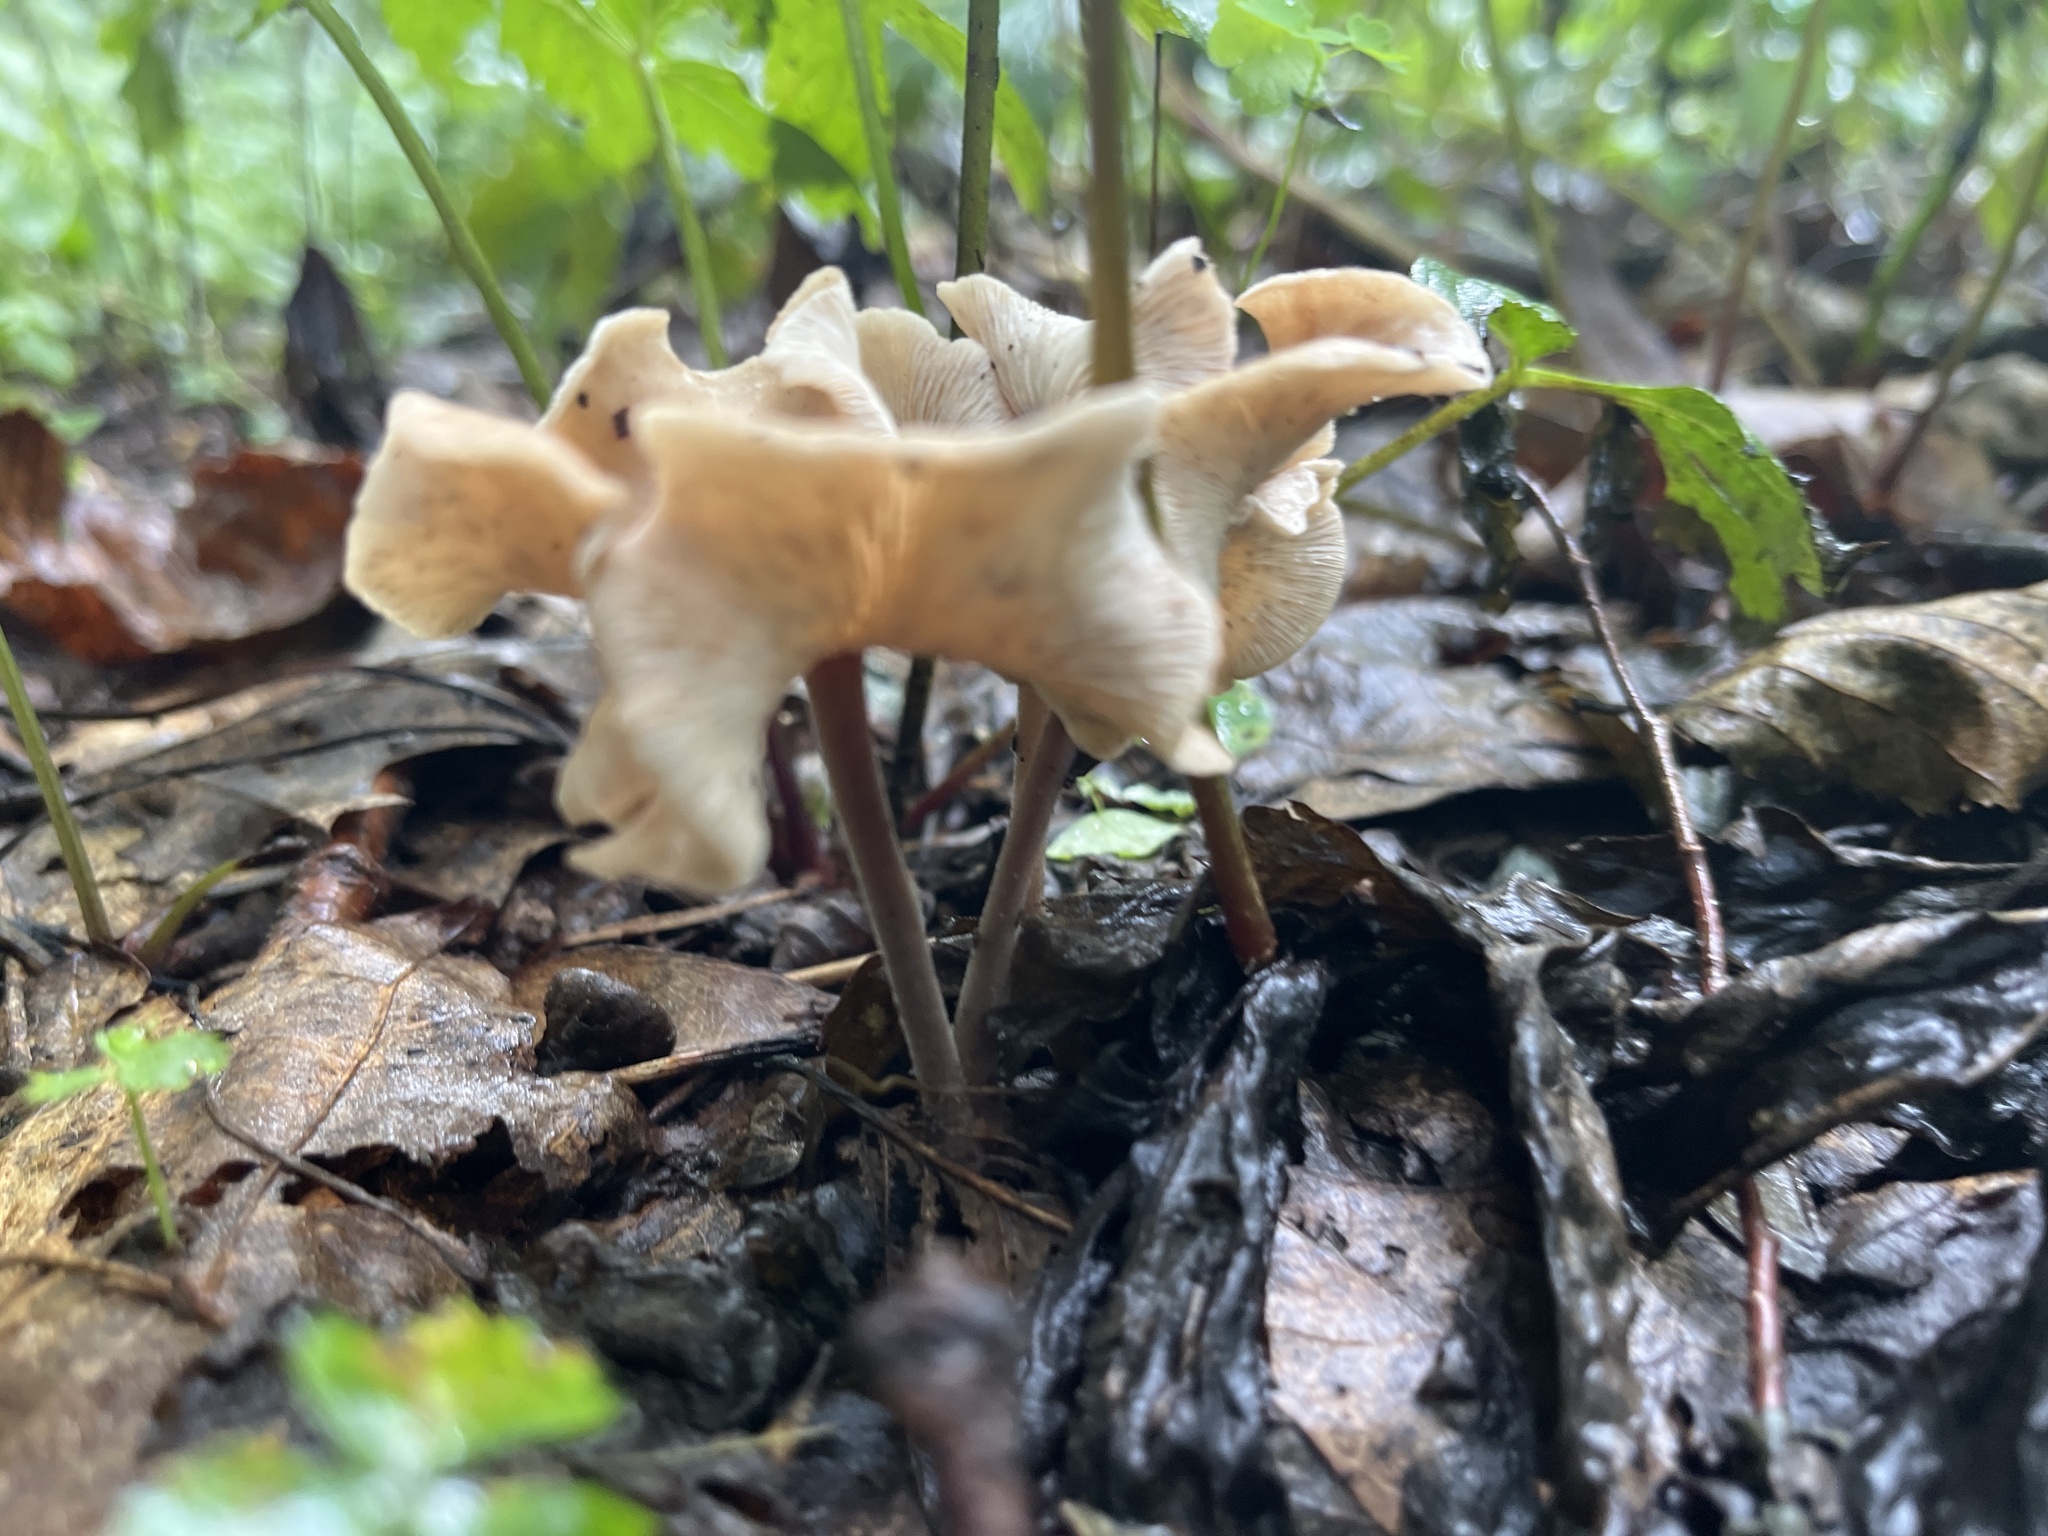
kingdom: Fungi
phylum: Basidiomycota
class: Agaricomycetes
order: Agaricales
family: Omphalotaceae
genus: Gymnopus
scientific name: Gymnopus dryophilus
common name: Penny top
